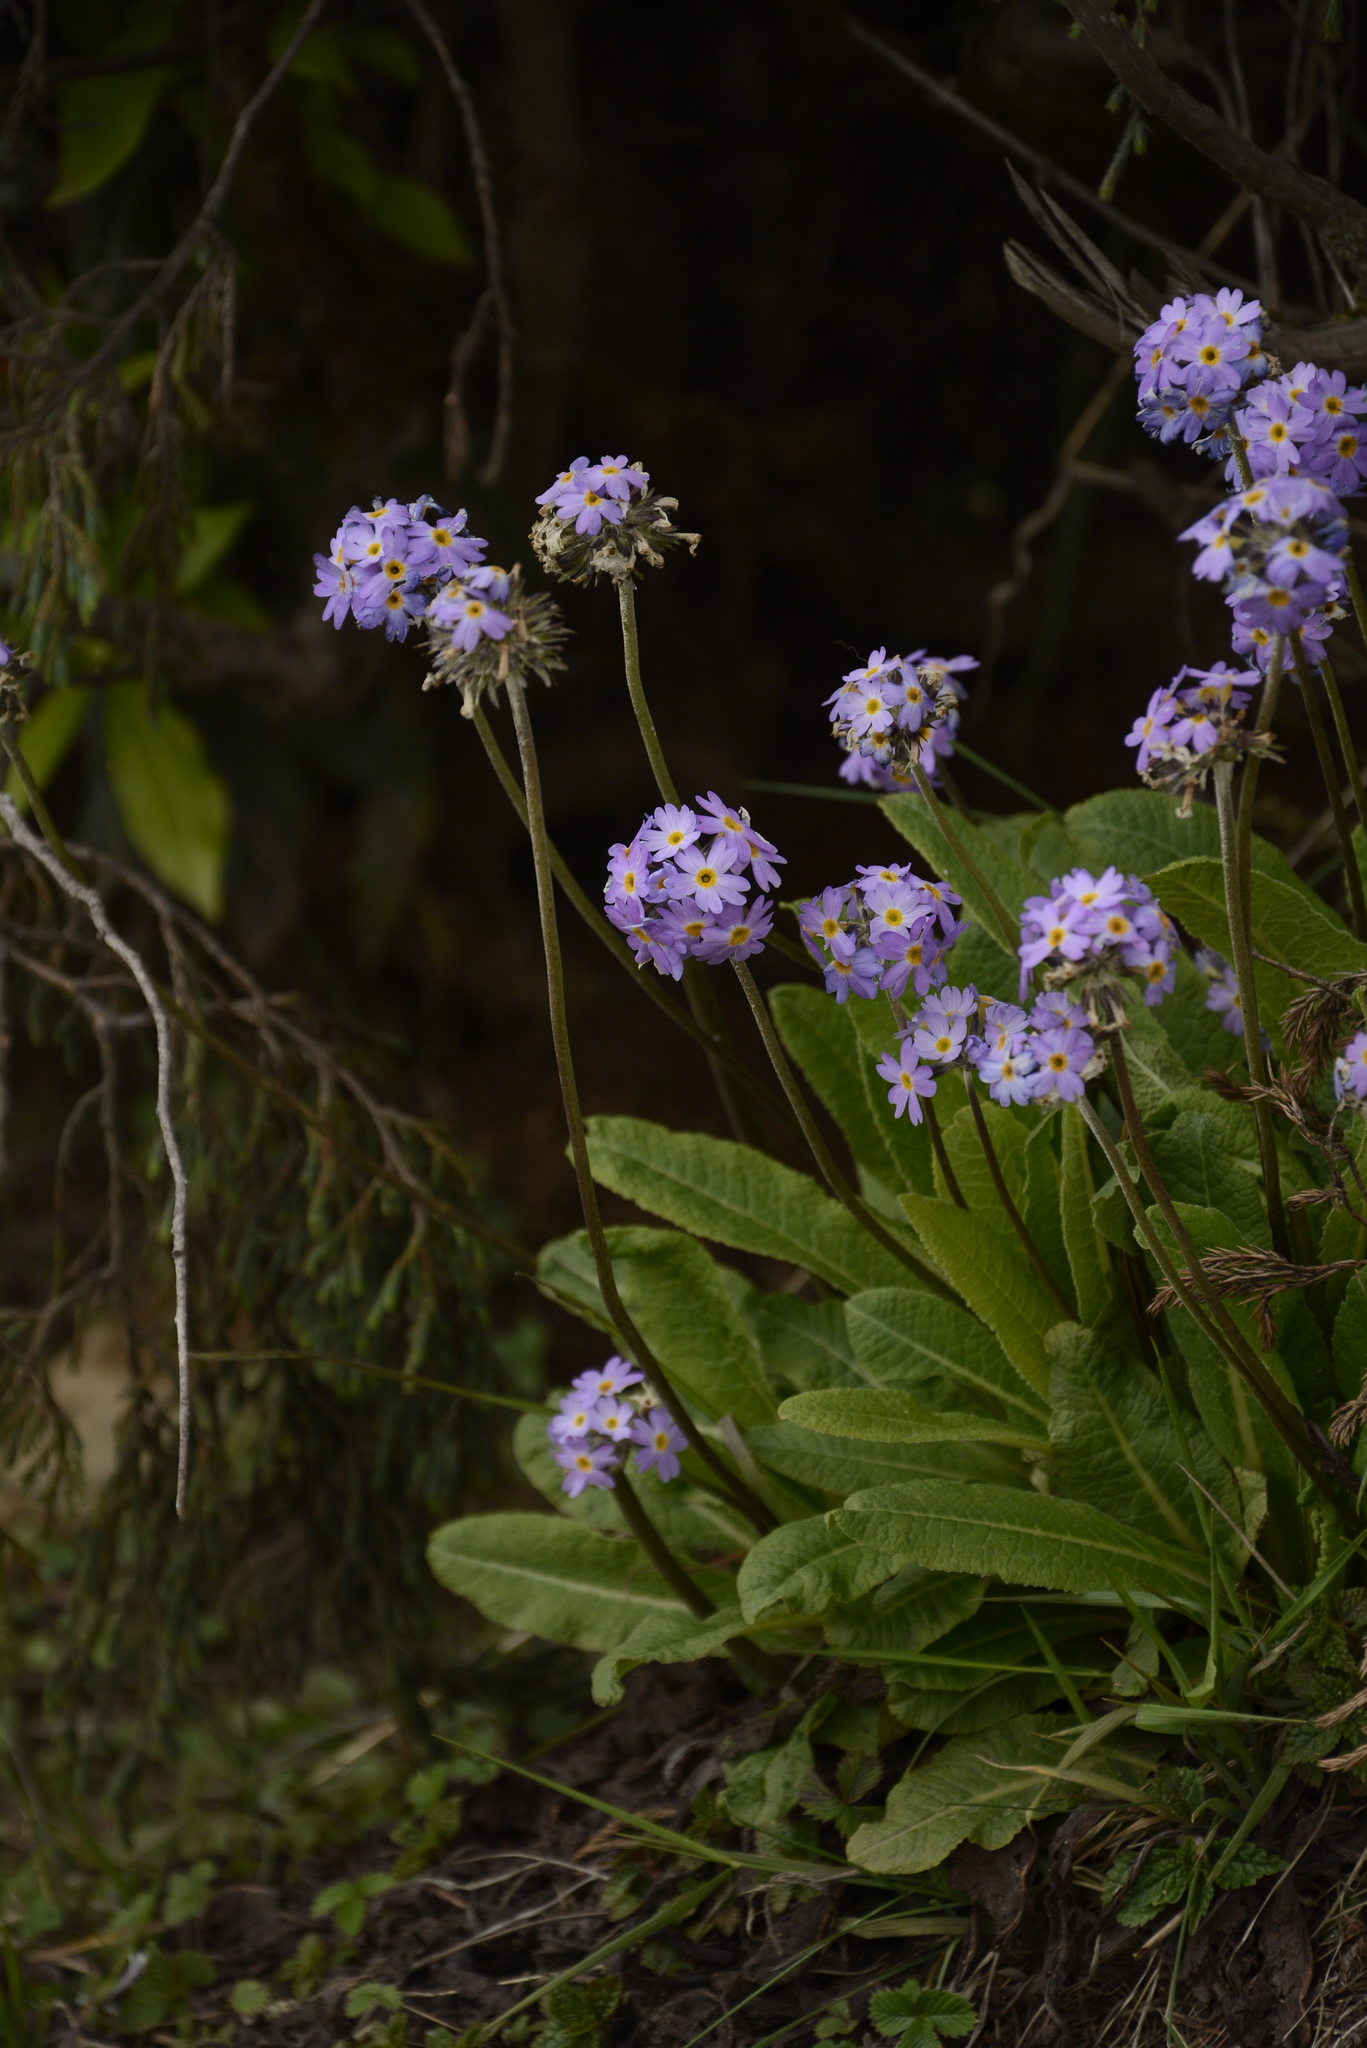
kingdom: Plantae
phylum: Tracheophyta
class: Magnoliopsida
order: Ericales
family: Primulaceae
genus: Primula
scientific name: Primula denticulata
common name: Drumstick primula
